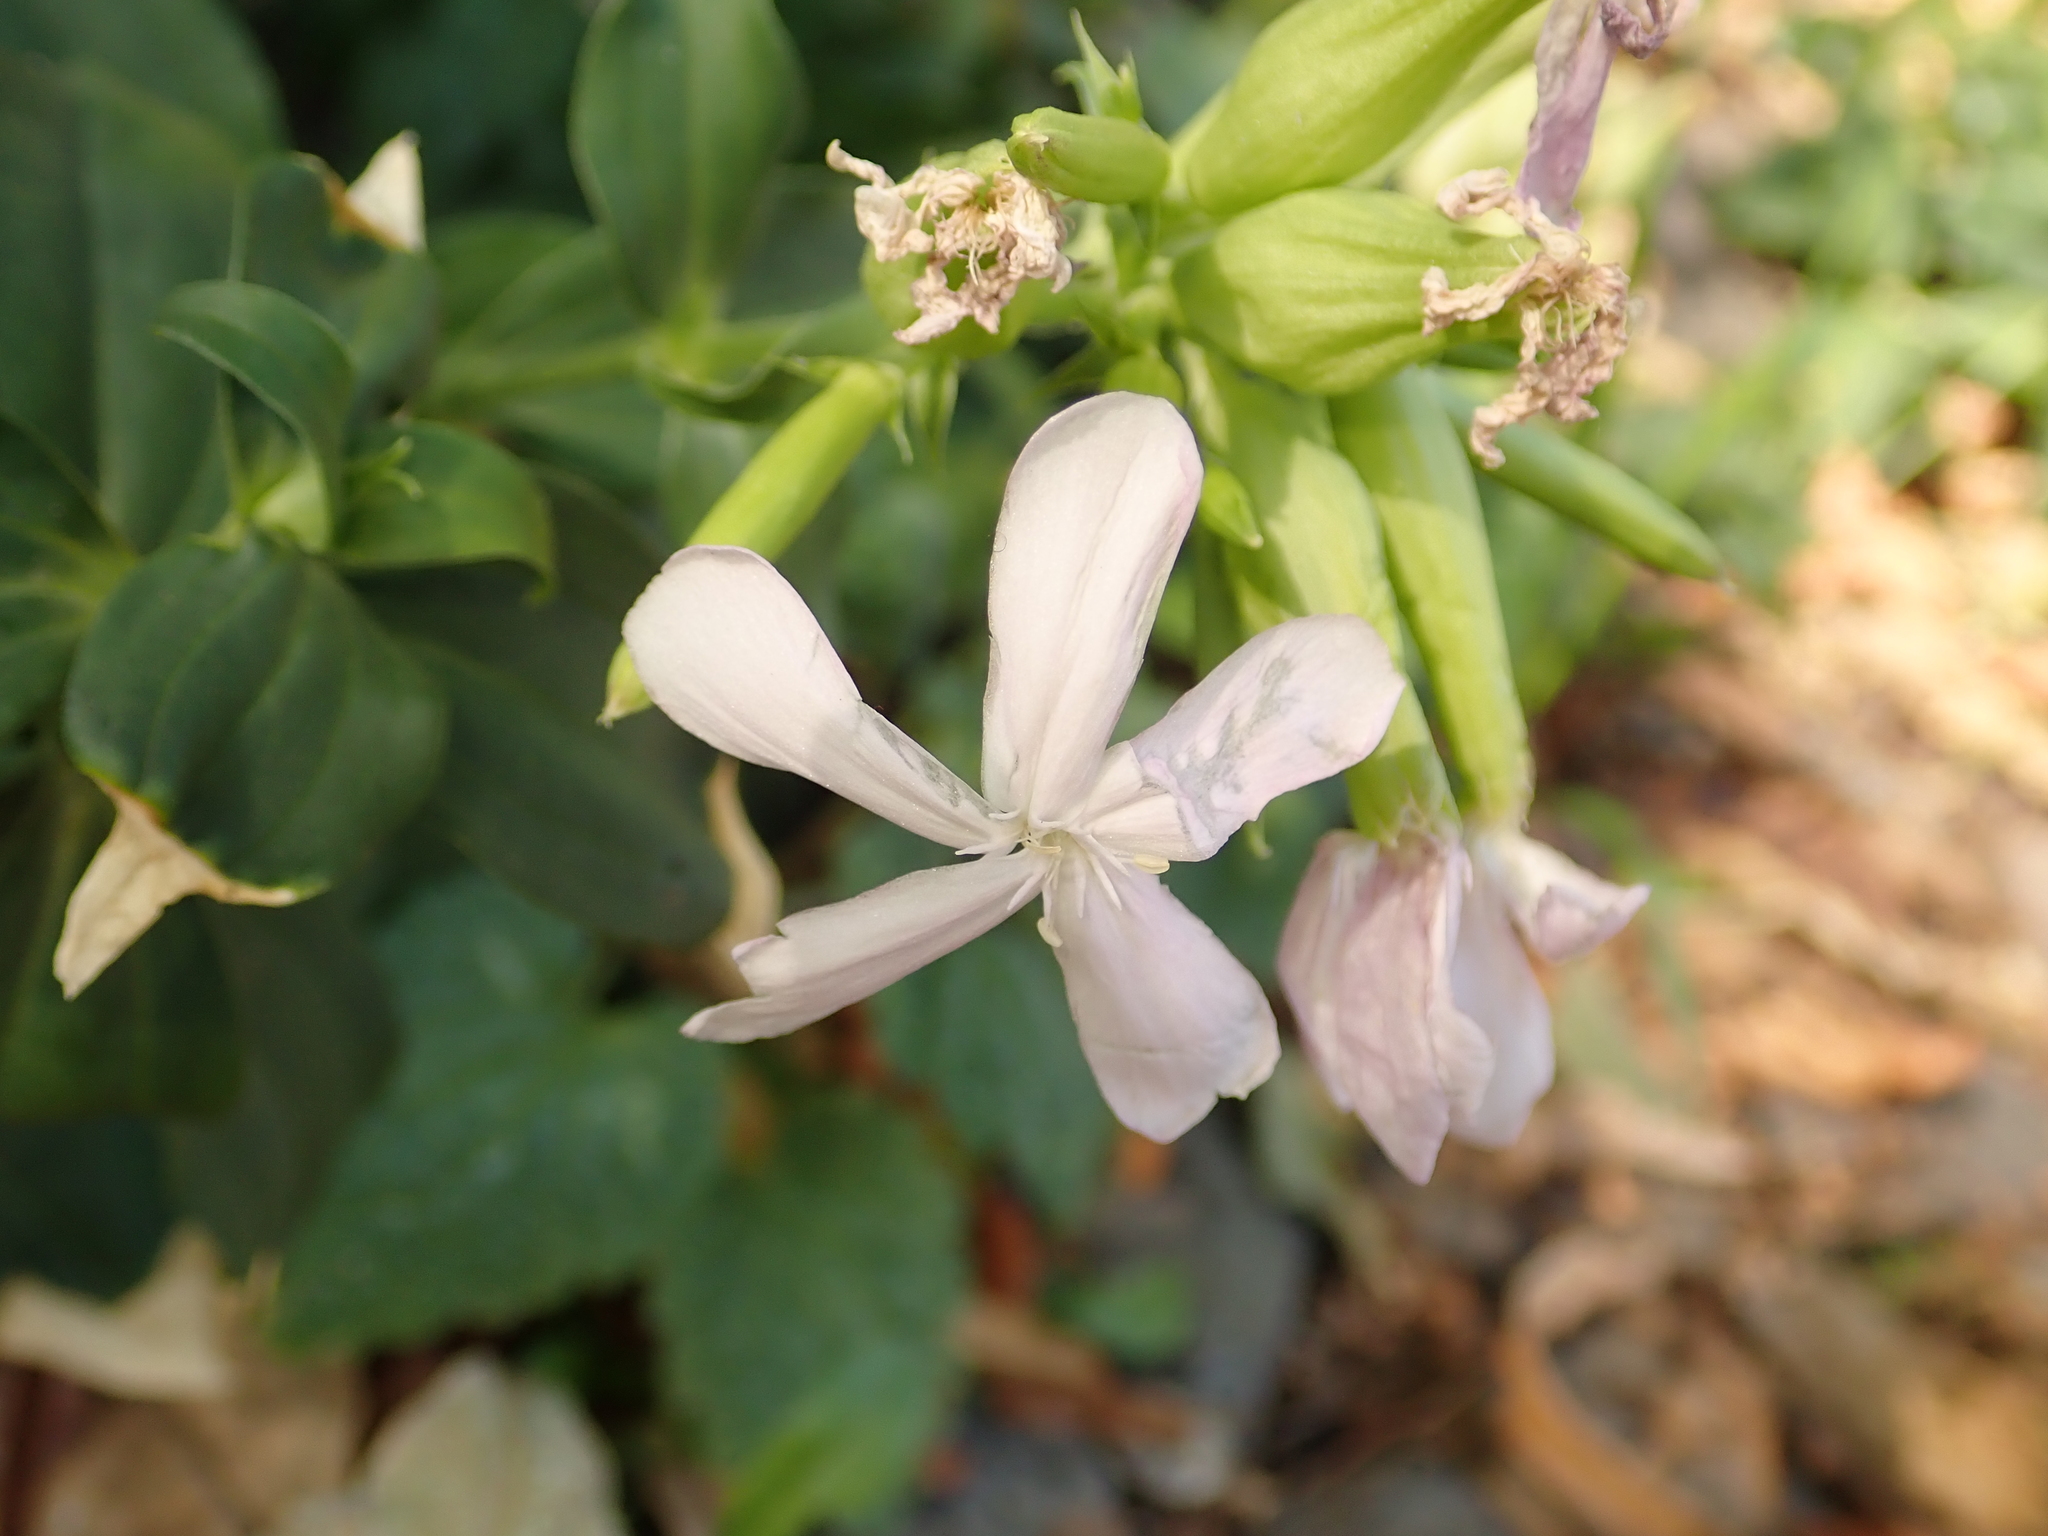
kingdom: Plantae
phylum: Tracheophyta
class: Magnoliopsida
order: Caryophyllales
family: Caryophyllaceae
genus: Saponaria
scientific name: Saponaria officinalis
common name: Soapwort
